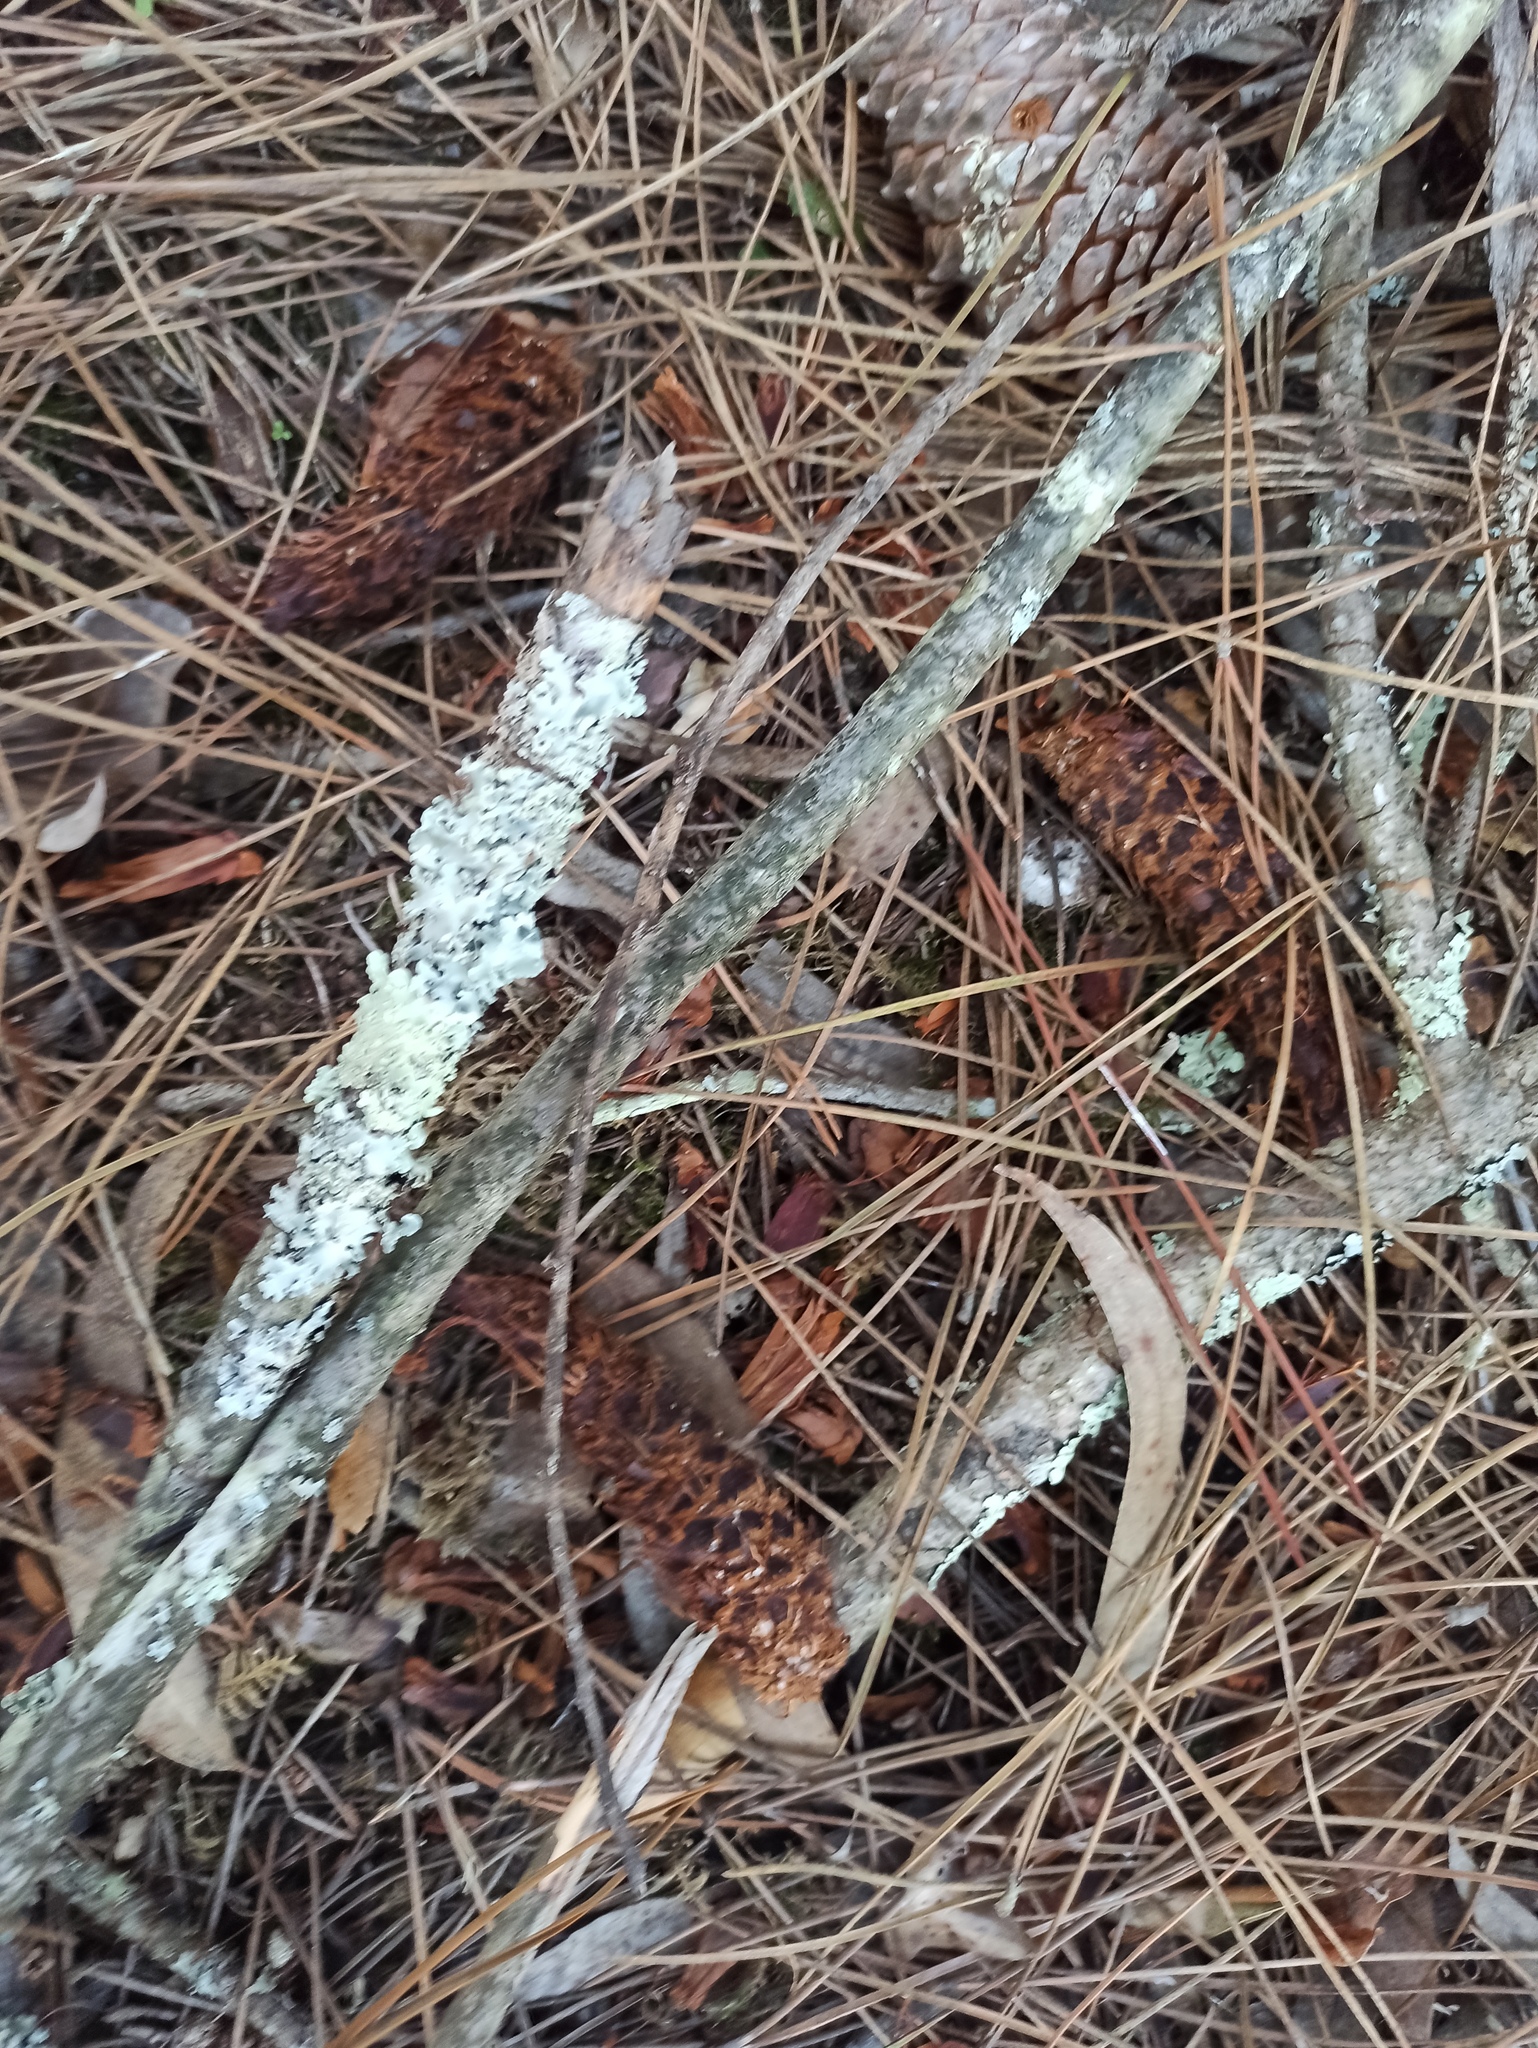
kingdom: Animalia
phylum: Chordata
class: Mammalia
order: Rodentia
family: Sciuridae
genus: Sciurus
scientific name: Sciurus vulgaris
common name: Eurasian red squirrel
